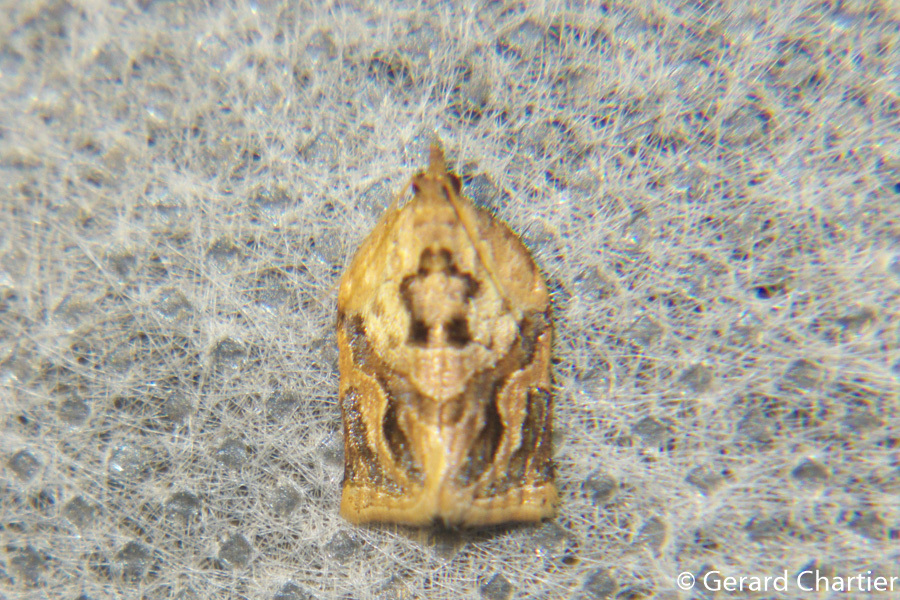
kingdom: Animalia
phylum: Arthropoda
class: Insecta
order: Lepidoptera
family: Tortricidae
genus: Adoxophyes
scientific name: Adoxophyes privatana
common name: Asian orchid tortrix
